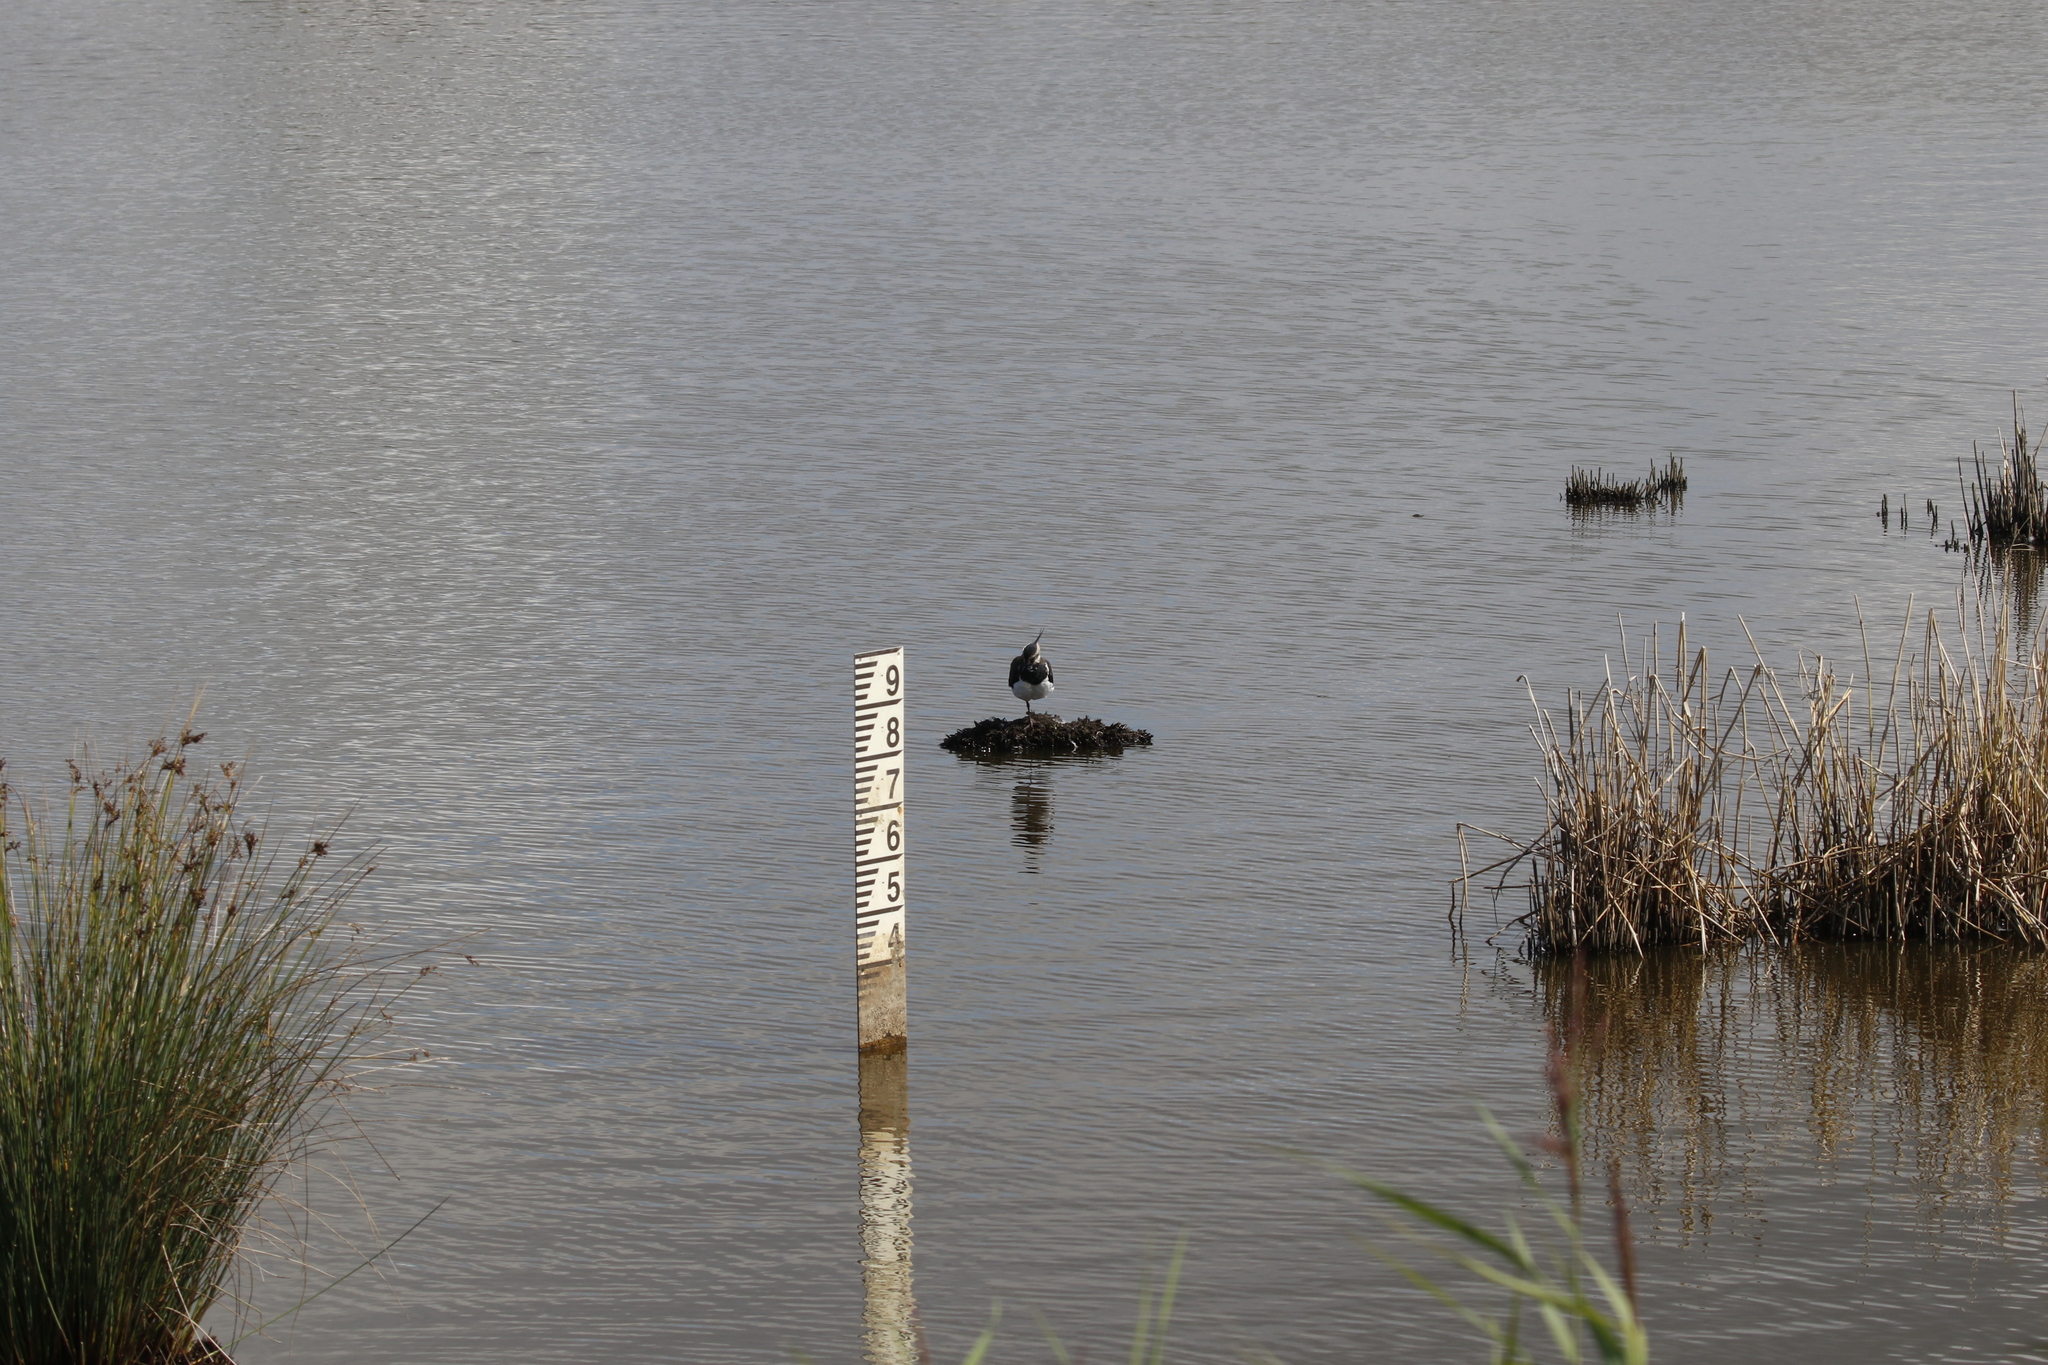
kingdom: Animalia
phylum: Chordata
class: Aves
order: Charadriiformes
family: Charadriidae
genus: Vanellus
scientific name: Vanellus vanellus
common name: Northern lapwing
